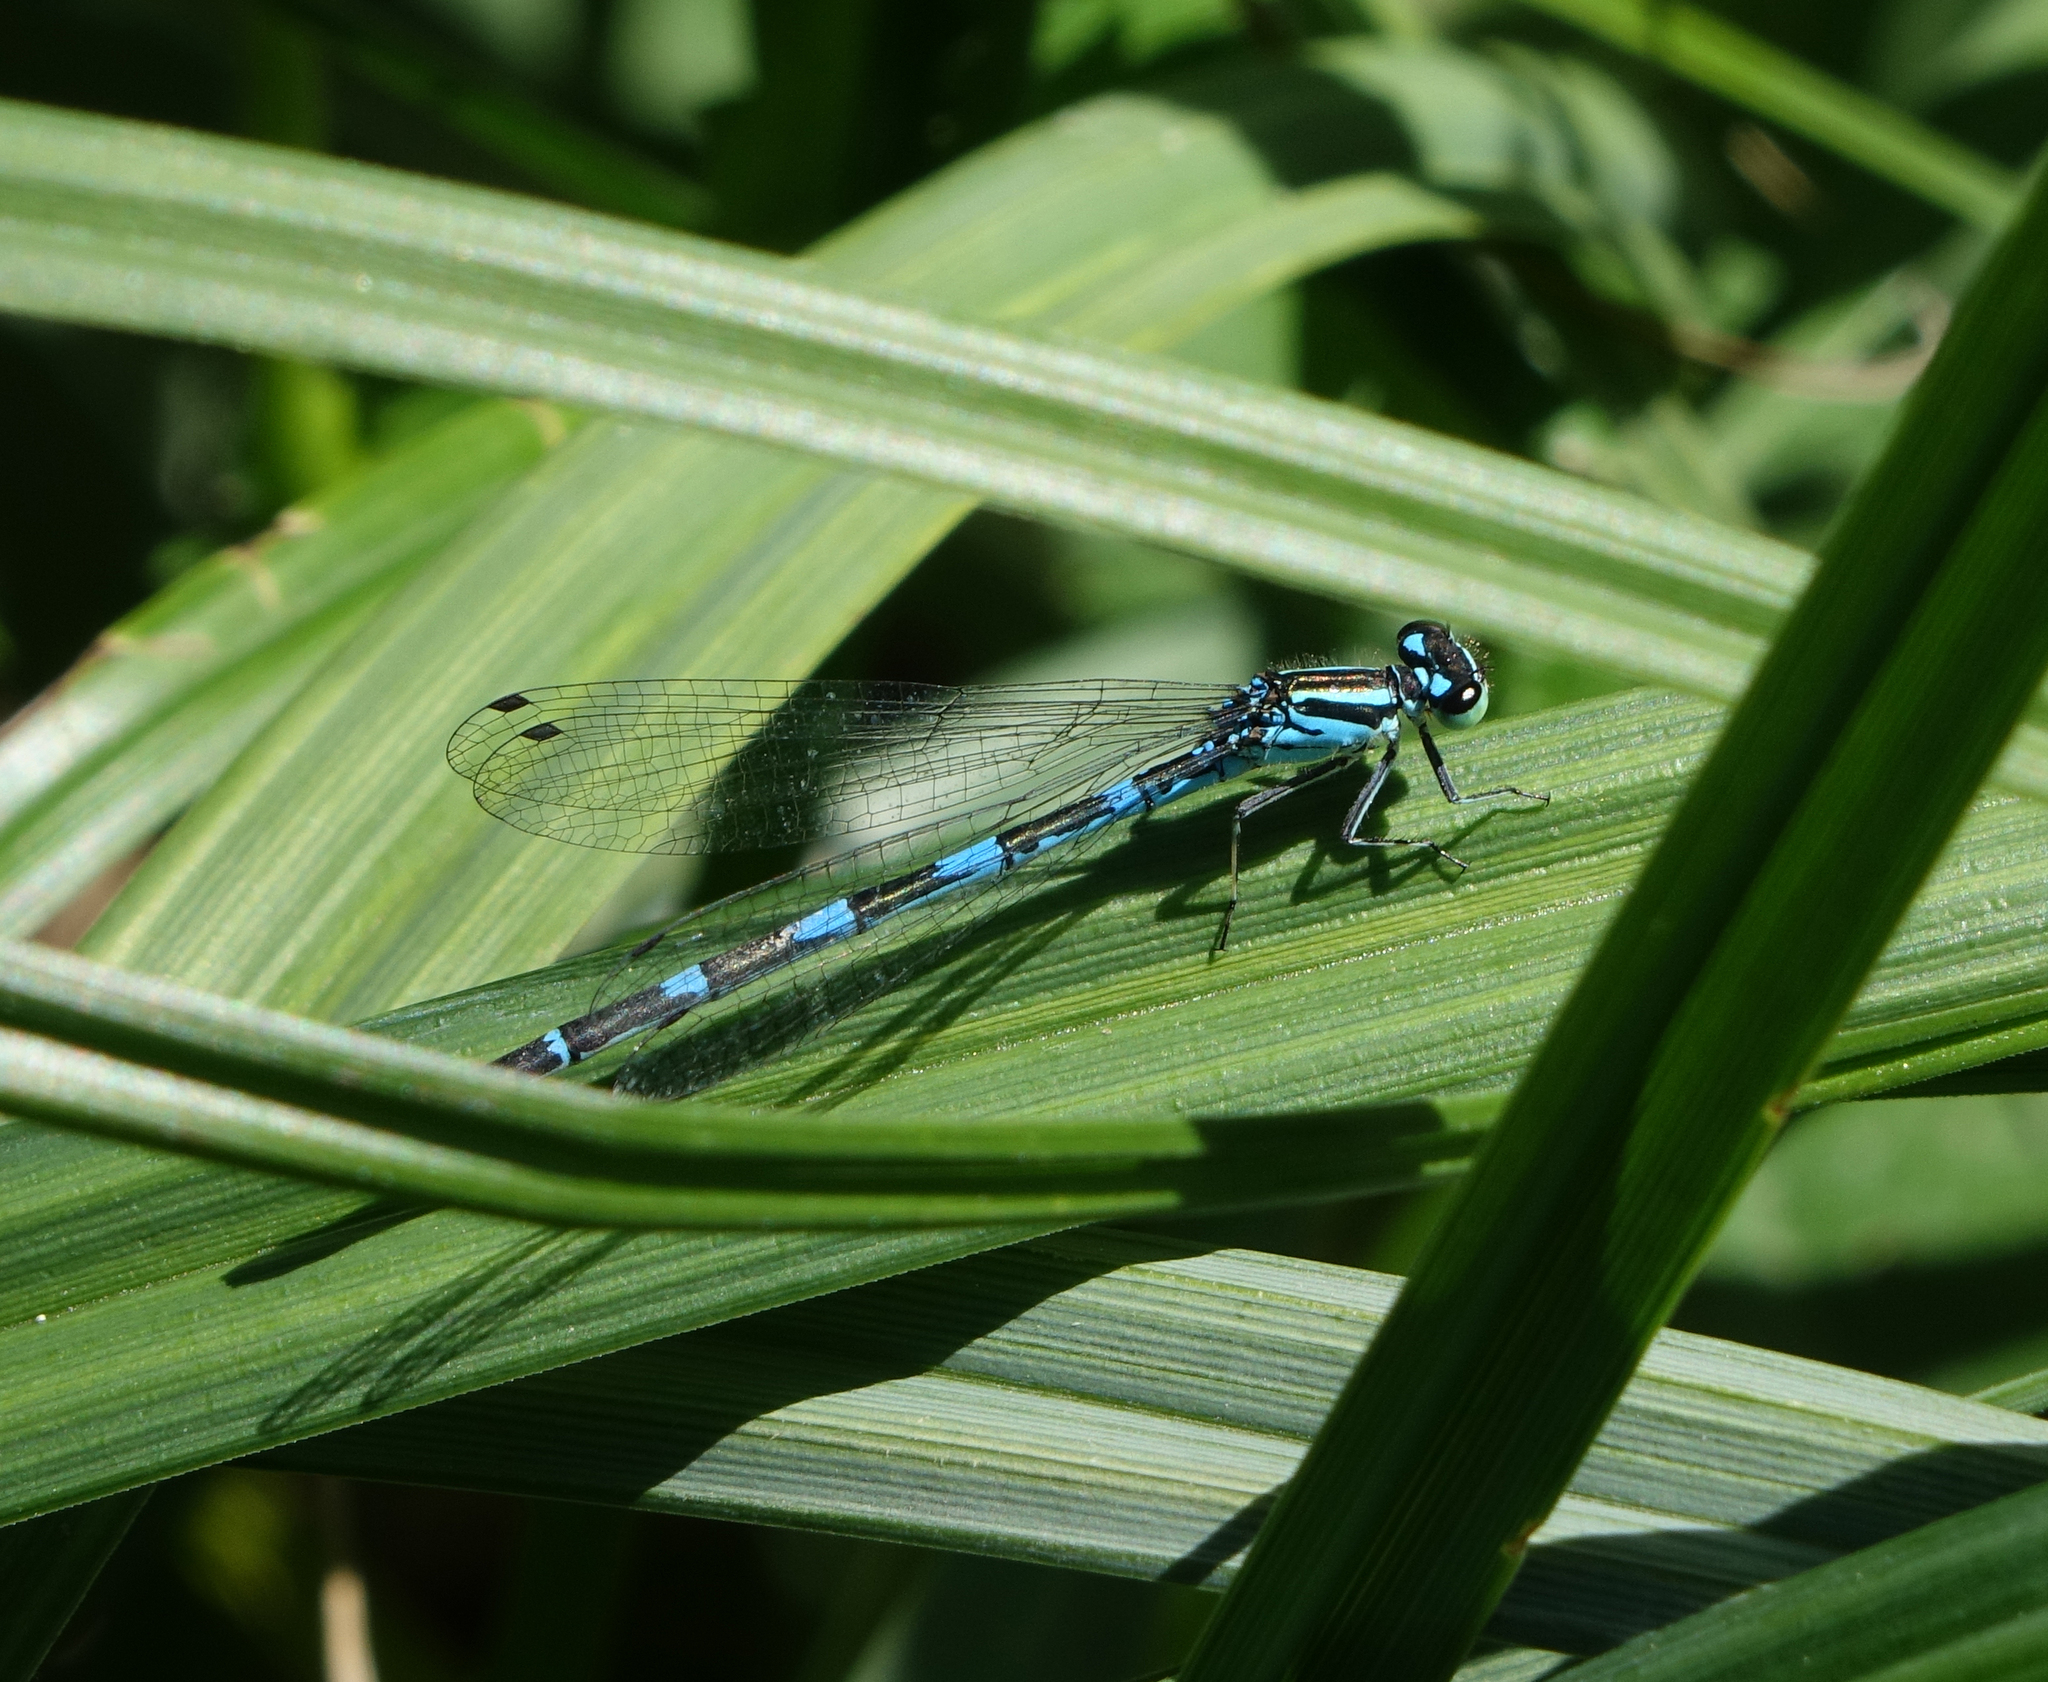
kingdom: Animalia
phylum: Arthropoda
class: Insecta
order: Odonata
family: Coenagrionidae
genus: Coenagrion
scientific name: Coenagrion puella
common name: Azure damselfly
